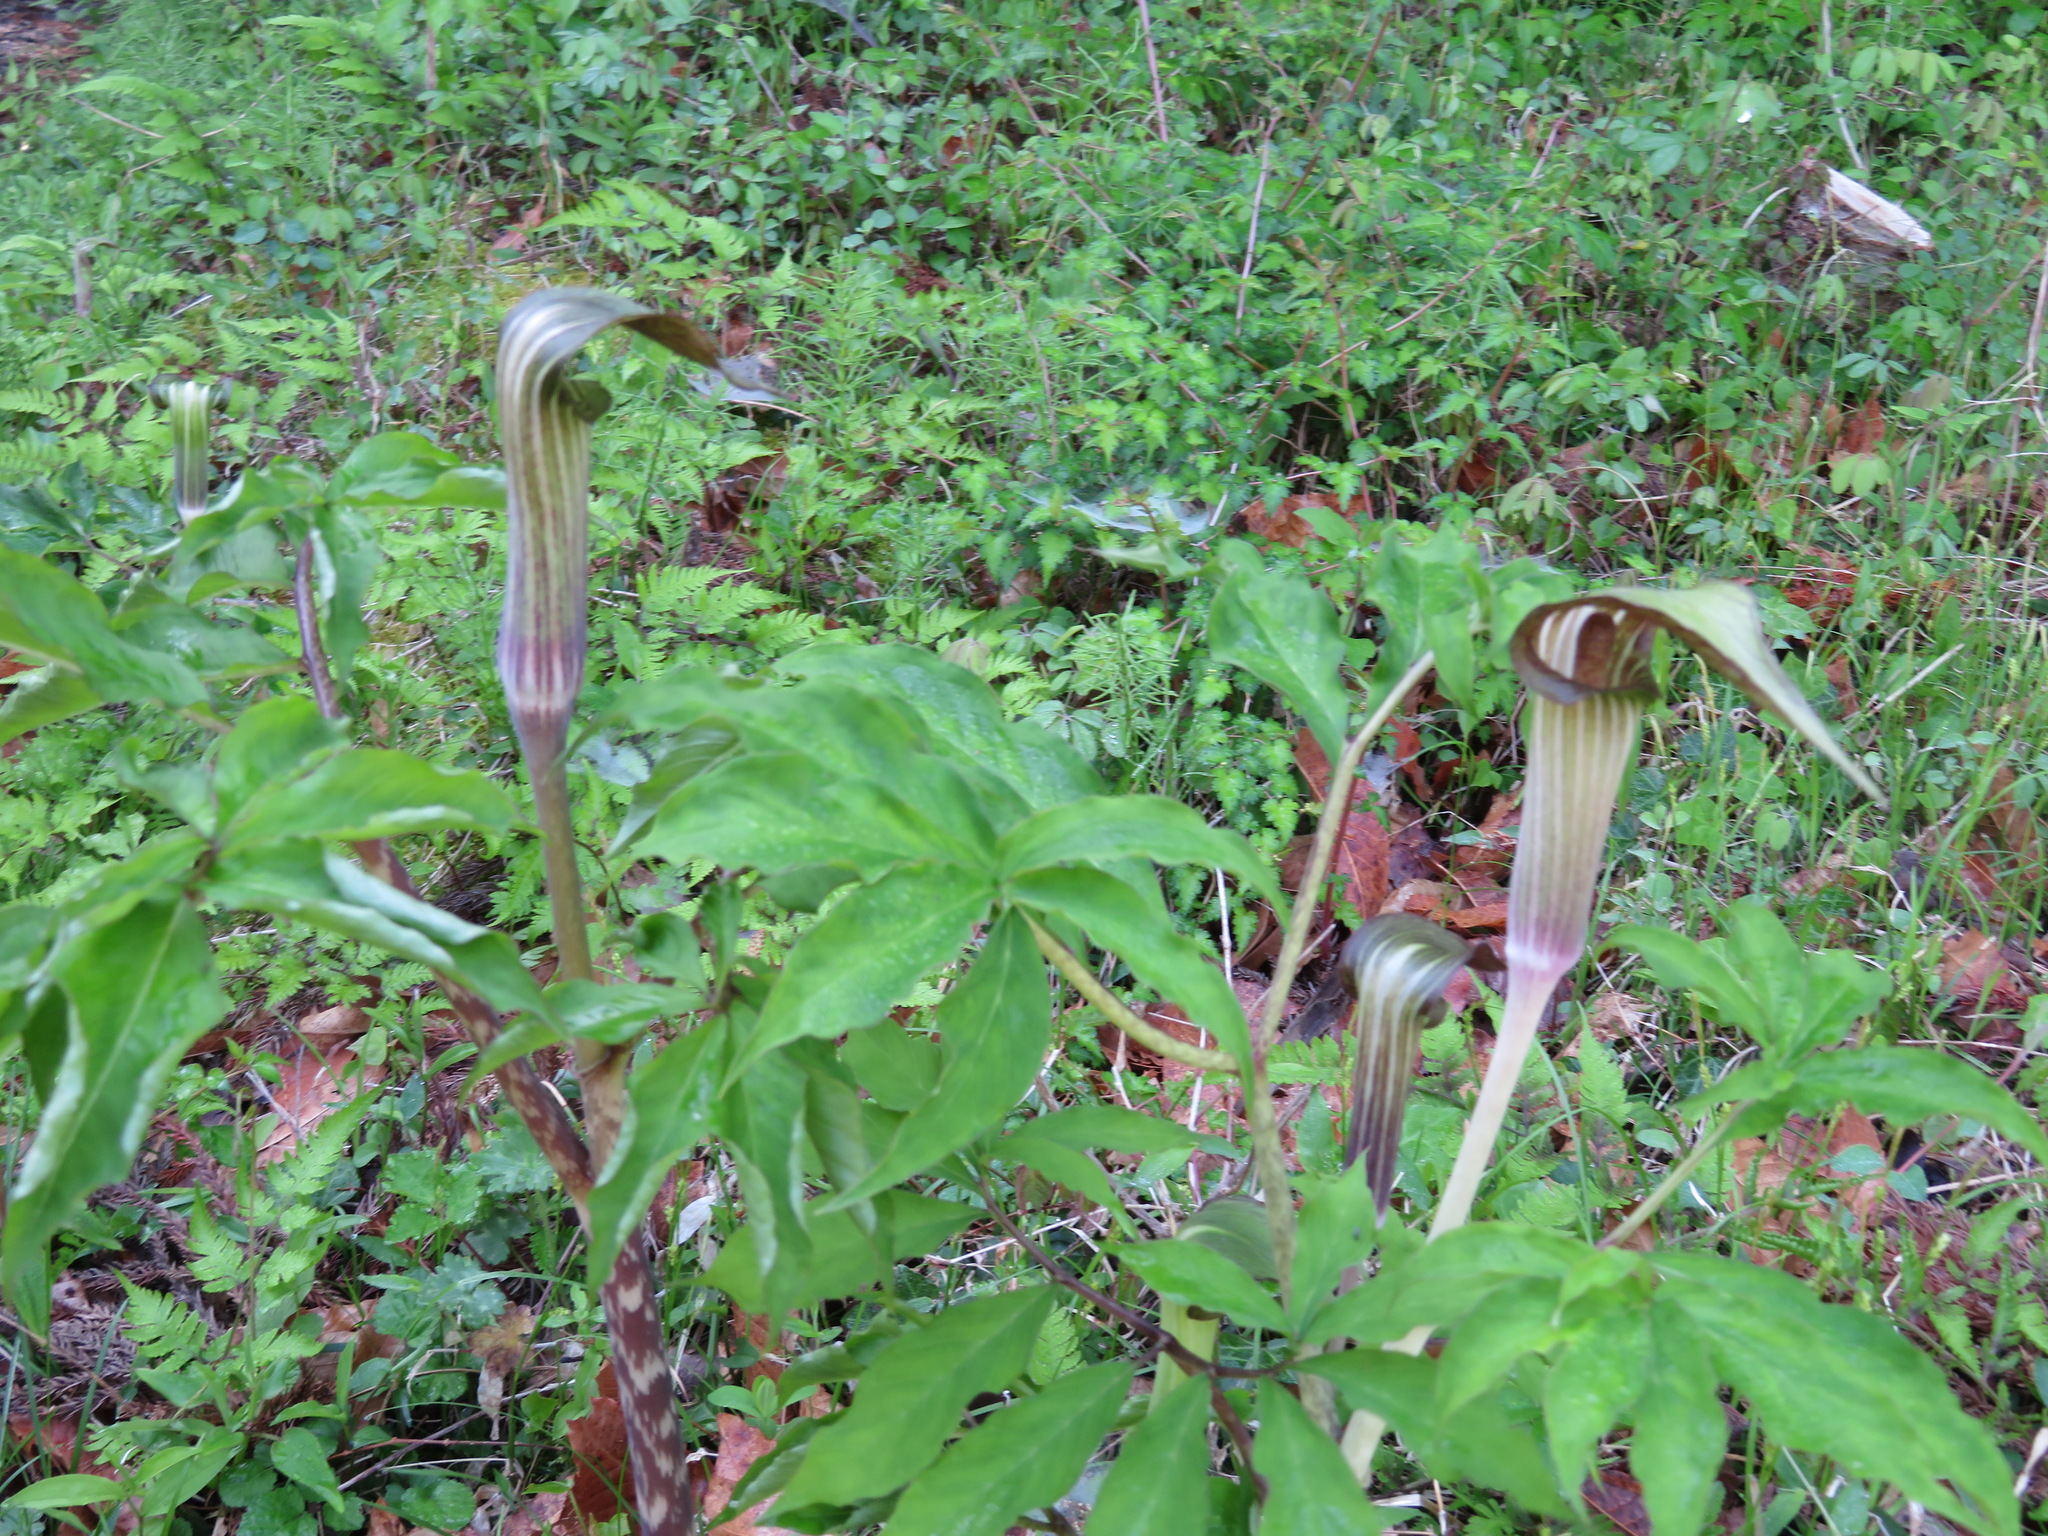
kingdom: Plantae
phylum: Tracheophyta
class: Liliopsida
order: Alismatales
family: Araceae
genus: Arisaema
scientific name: Arisaema serratum
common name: Japanese arisaema
